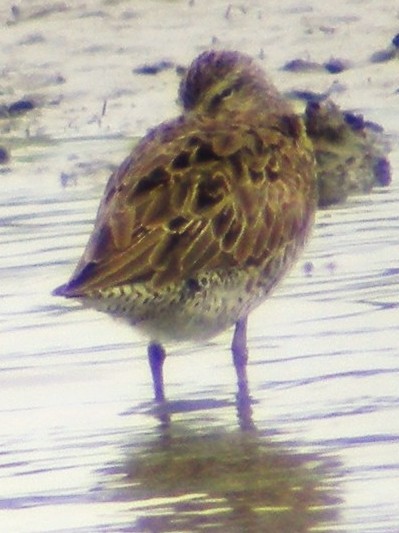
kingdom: Animalia
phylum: Chordata
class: Aves
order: Charadriiformes
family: Scolopacidae
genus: Limnodromus
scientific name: Limnodromus griseus
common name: Short-billed dowitcher
